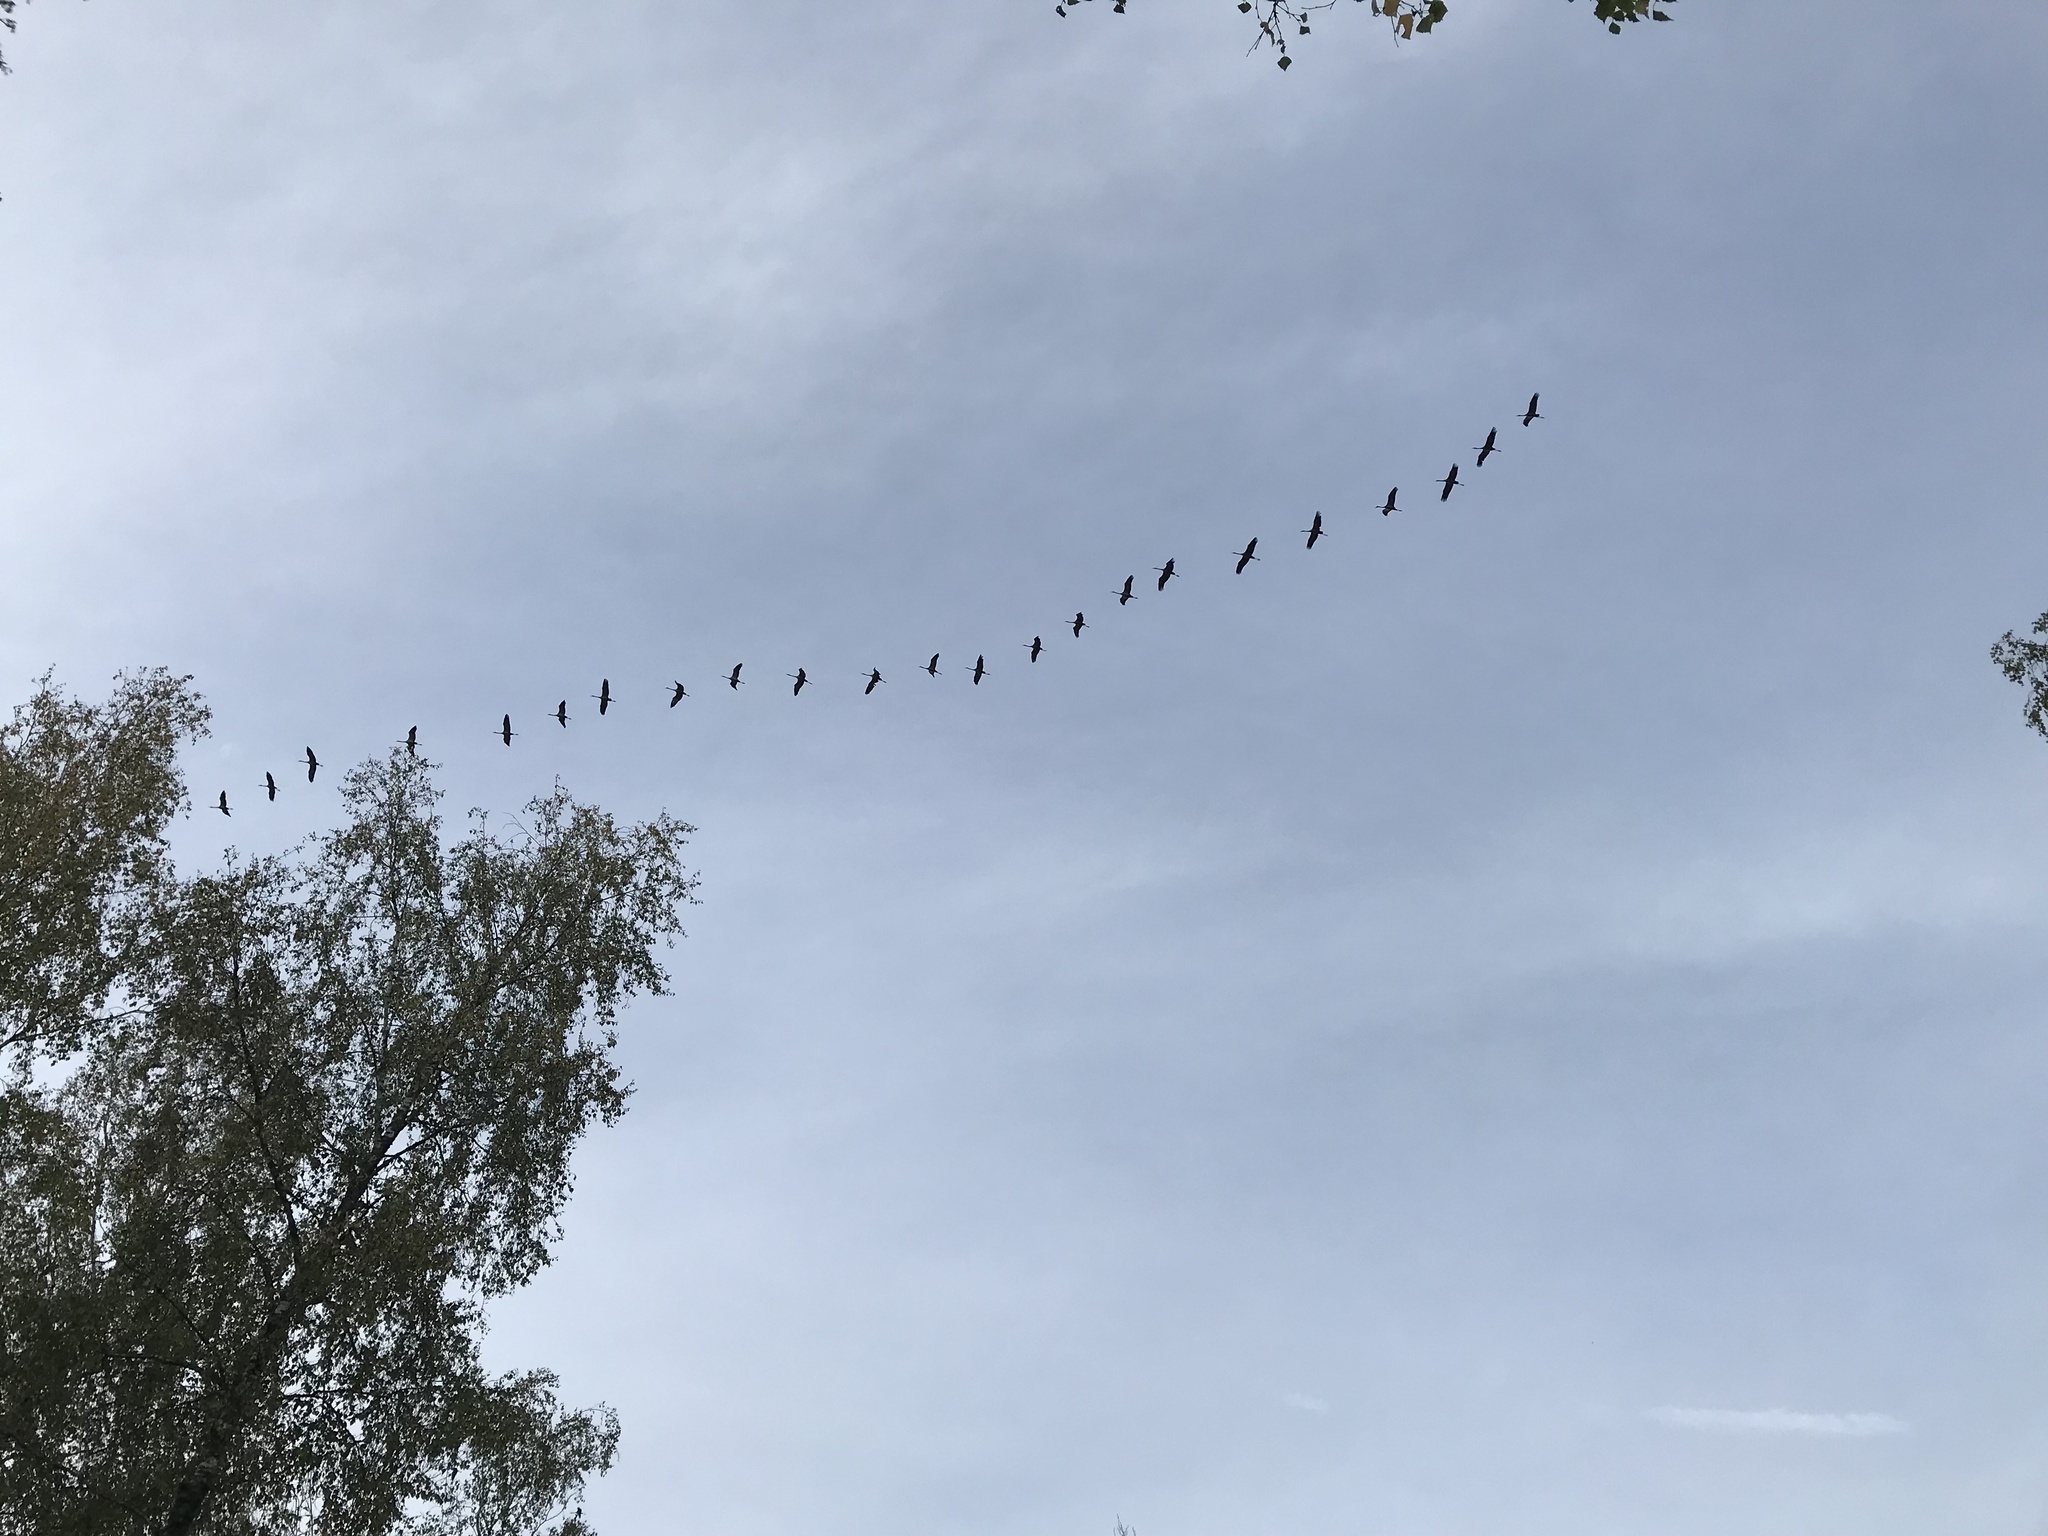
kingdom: Animalia
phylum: Chordata
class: Aves
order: Gruiformes
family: Gruidae
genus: Grus
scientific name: Grus grus
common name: Common crane
